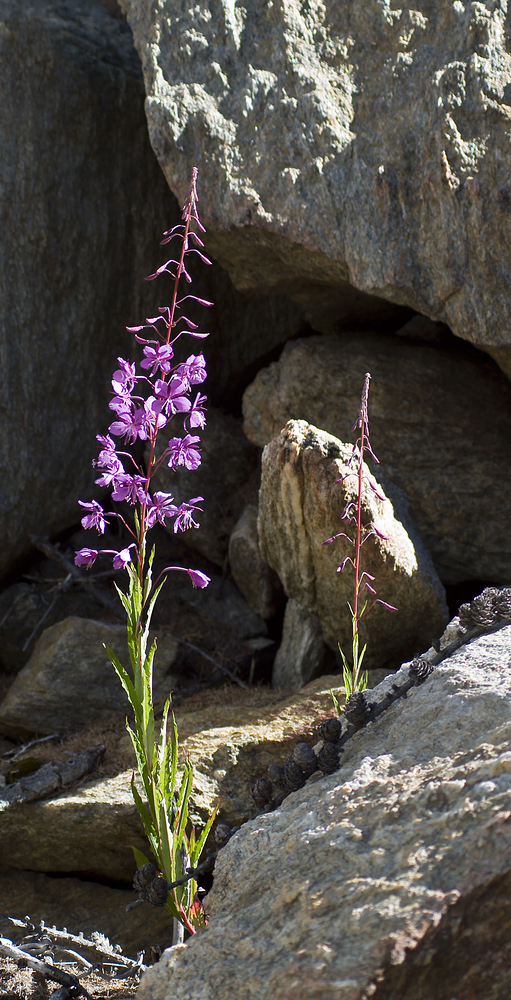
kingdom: Plantae
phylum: Tracheophyta
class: Magnoliopsida
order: Myrtales
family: Onagraceae
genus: Chamaenerion
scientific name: Chamaenerion angustifolium
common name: Fireweed
